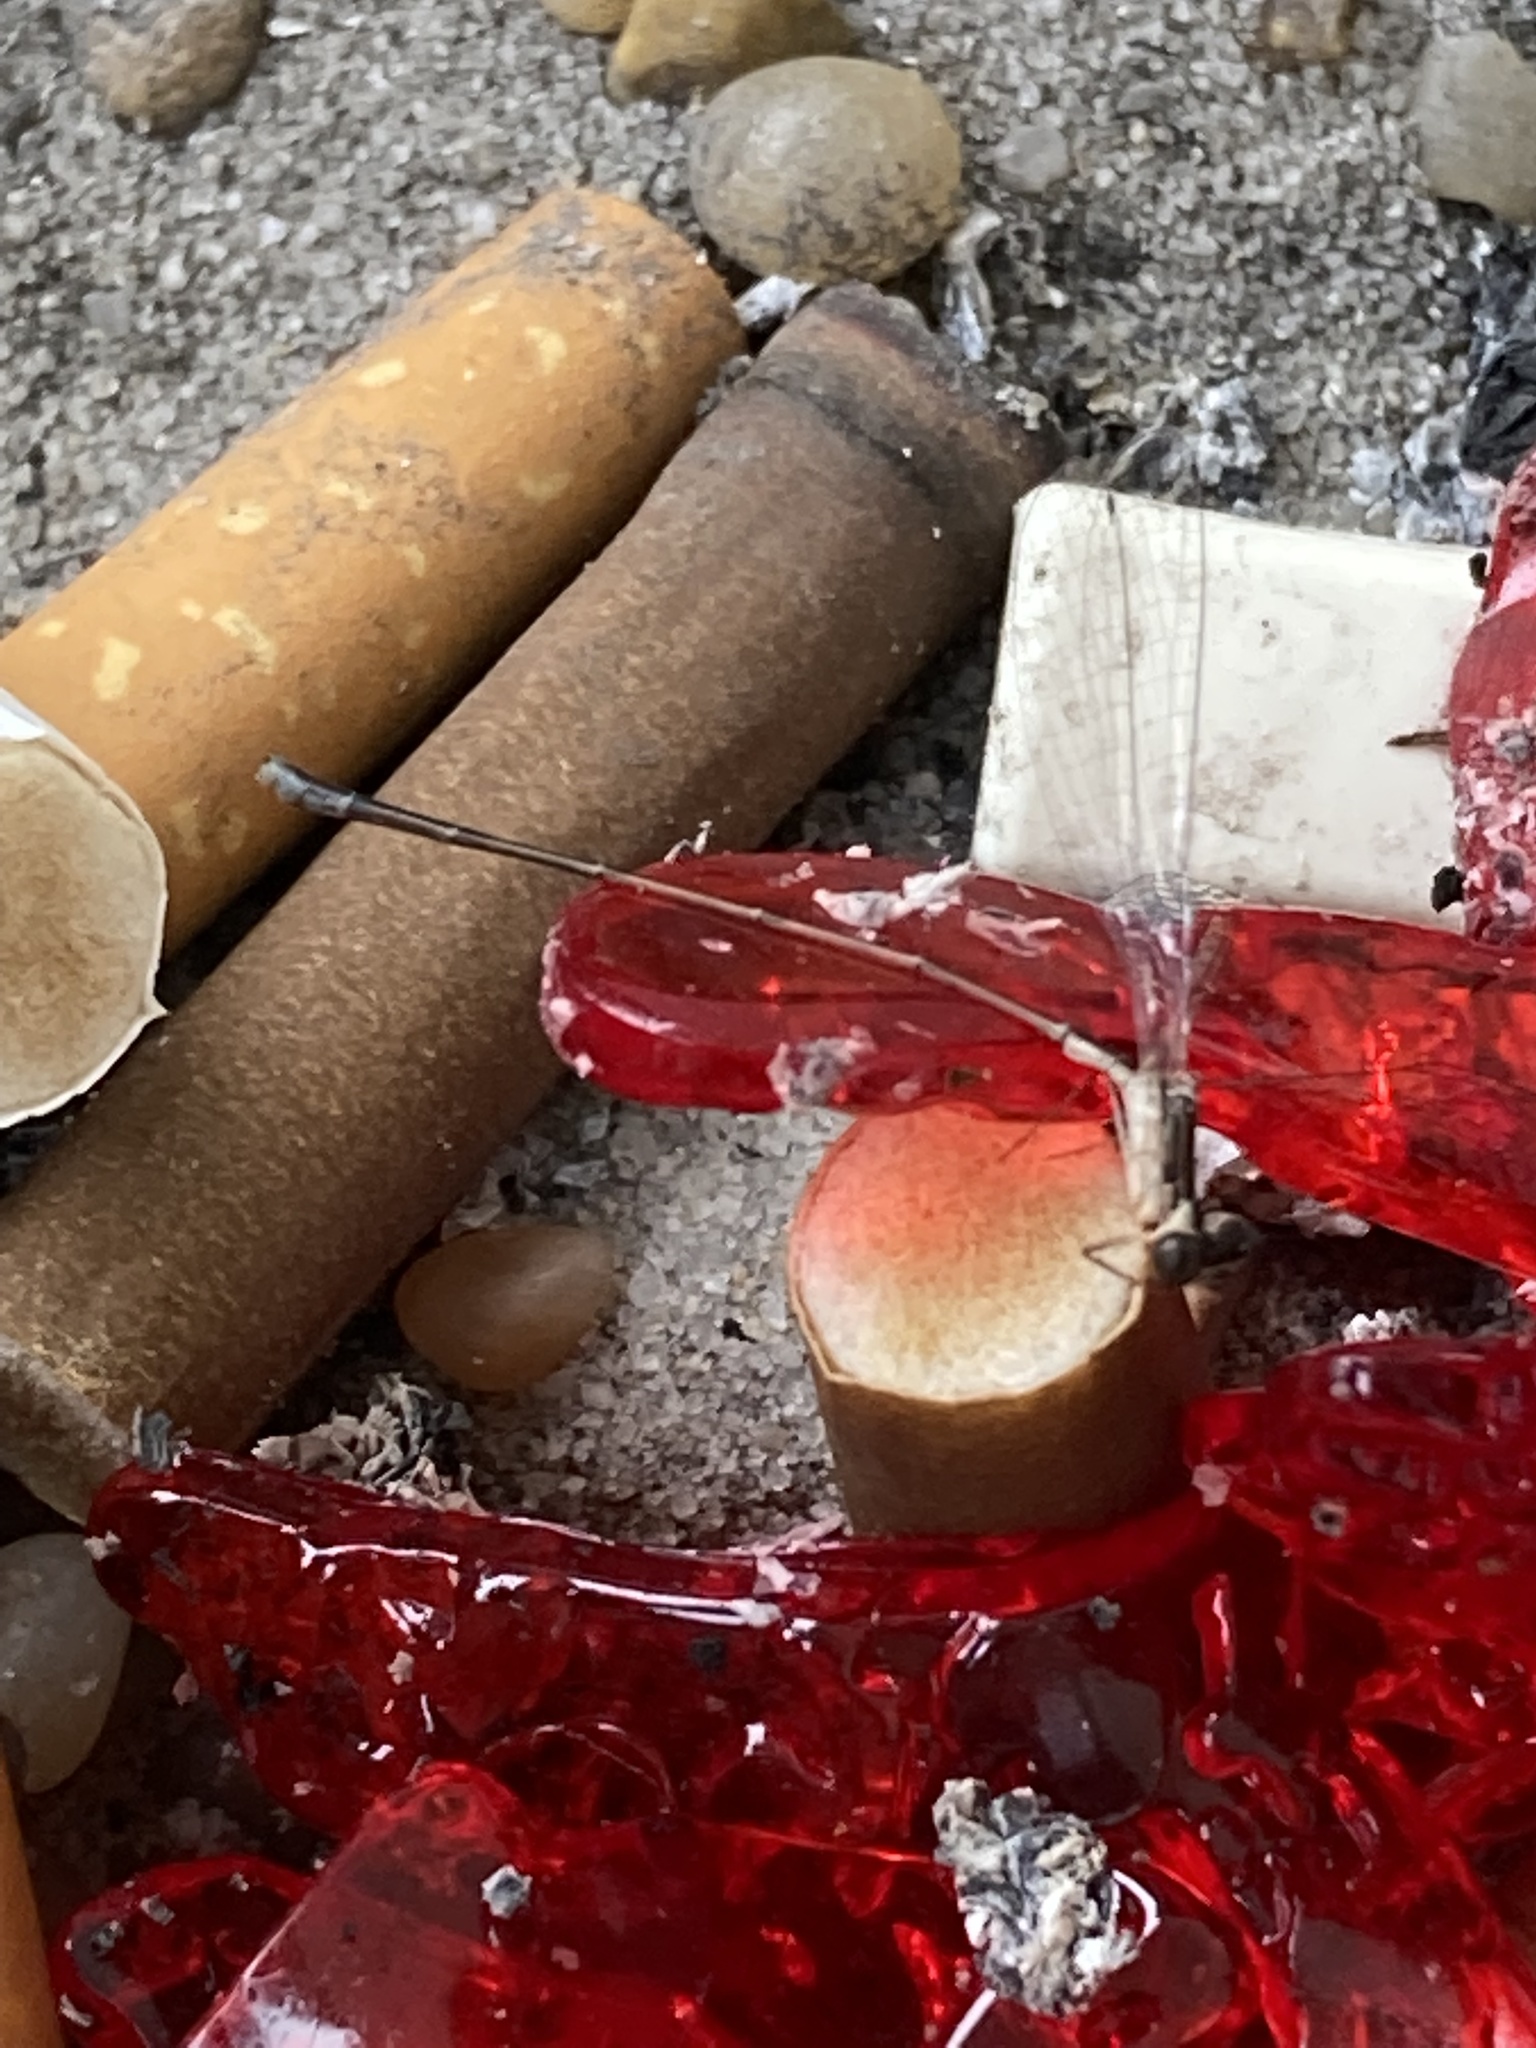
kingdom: Animalia
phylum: Arthropoda
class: Insecta
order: Odonata
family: Coenagrionidae
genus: Nehalennia
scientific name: Nehalennia pallidula
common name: Everglades sprite
